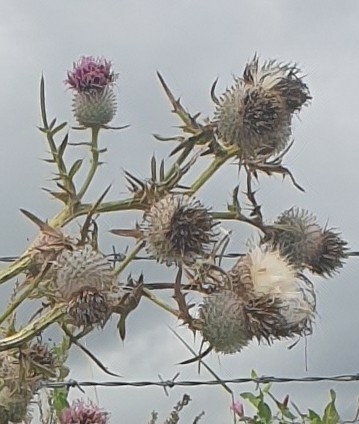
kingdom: Plantae
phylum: Tracheophyta
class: Magnoliopsida
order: Asterales
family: Asteraceae
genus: Lophiolepis
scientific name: Lophiolepis eriophora
